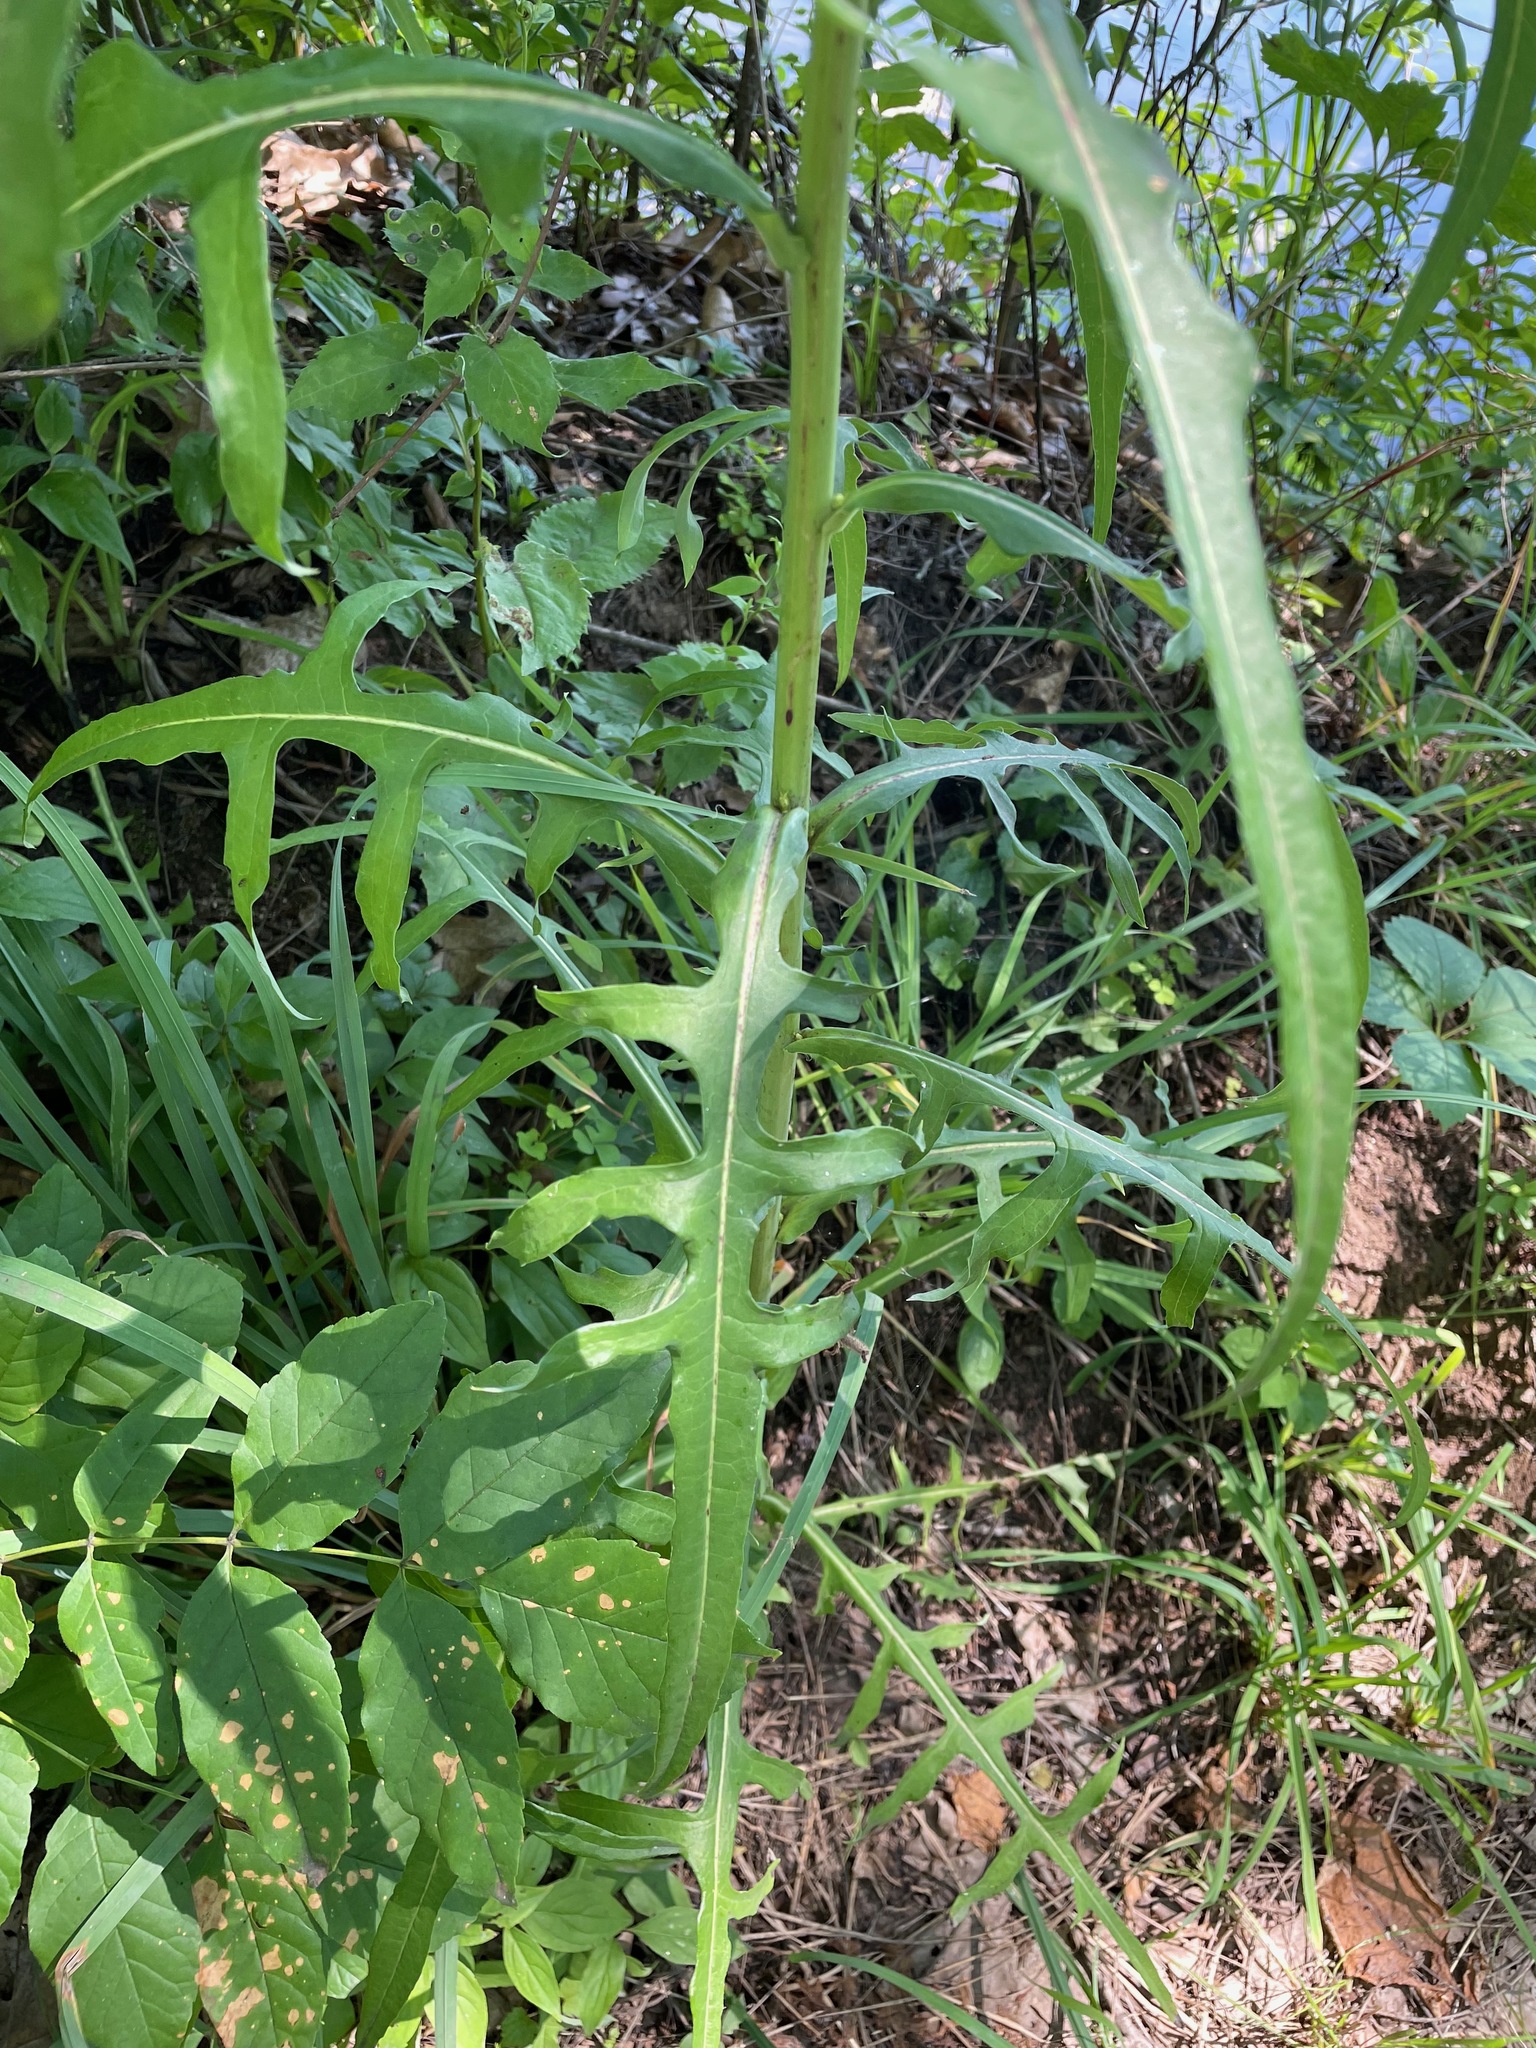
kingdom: Plantae
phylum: Tracheophyta
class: Magnoliopsida
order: Asterales
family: Asteraceae
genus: Lactuca
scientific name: Lactuca canadensis
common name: Canada lettuce
